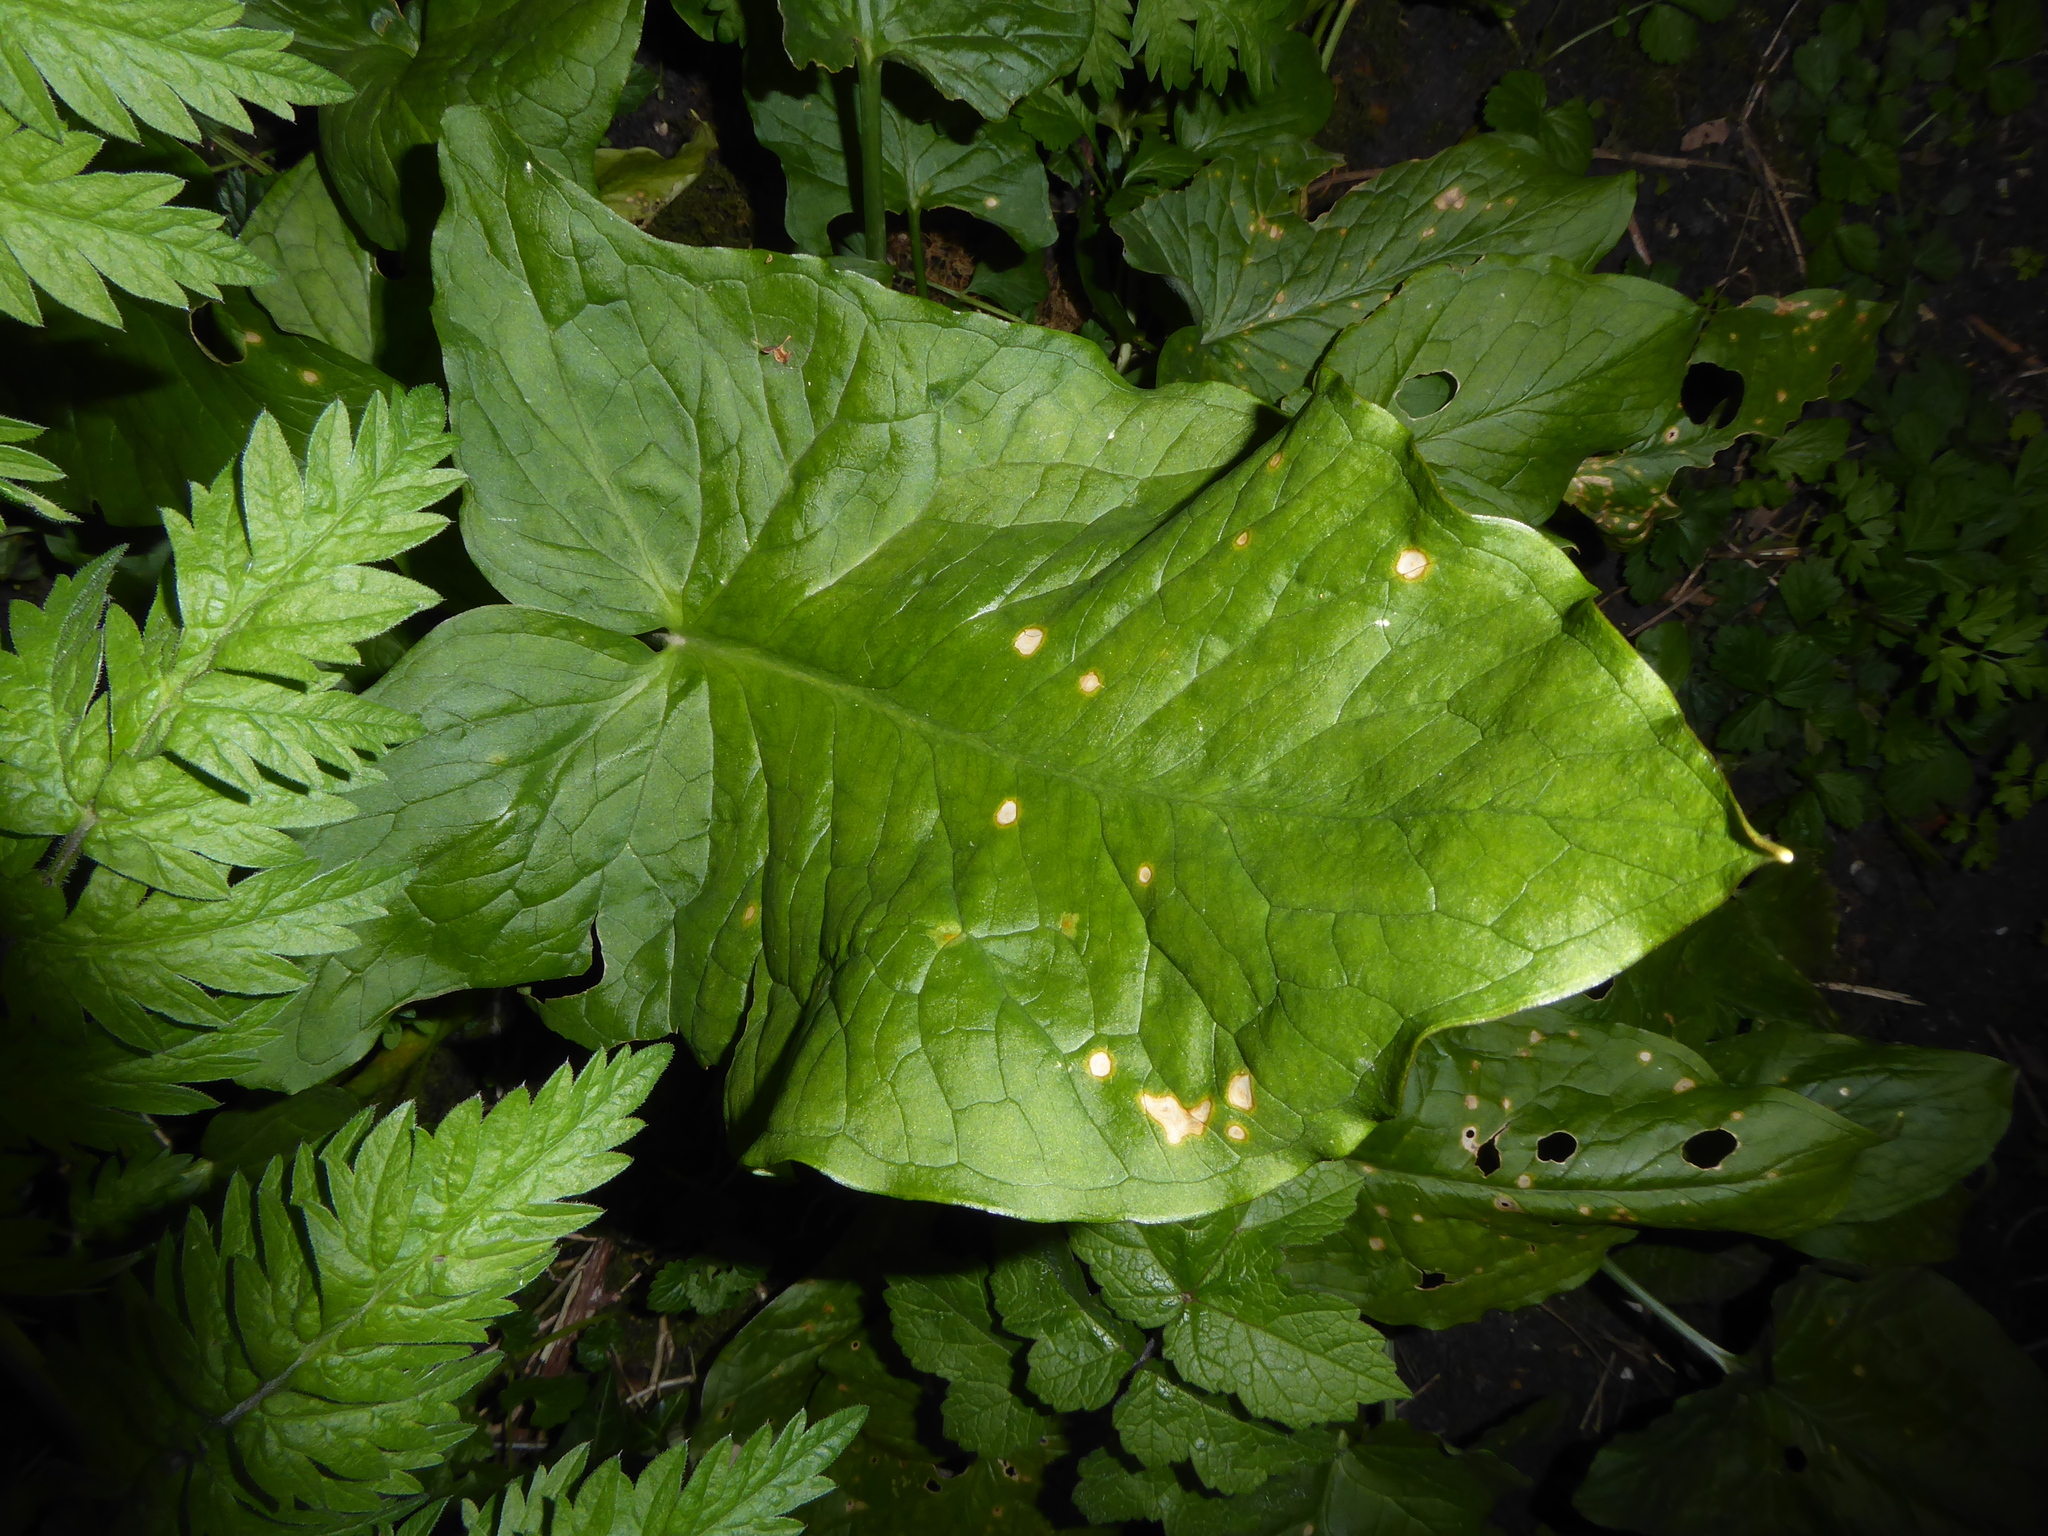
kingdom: Fungi
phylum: Ascomycota
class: Sordariomycetes
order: Glomerellales
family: Plectosphaerellaceae
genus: Spermosporina
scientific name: Spermosporina aricola
